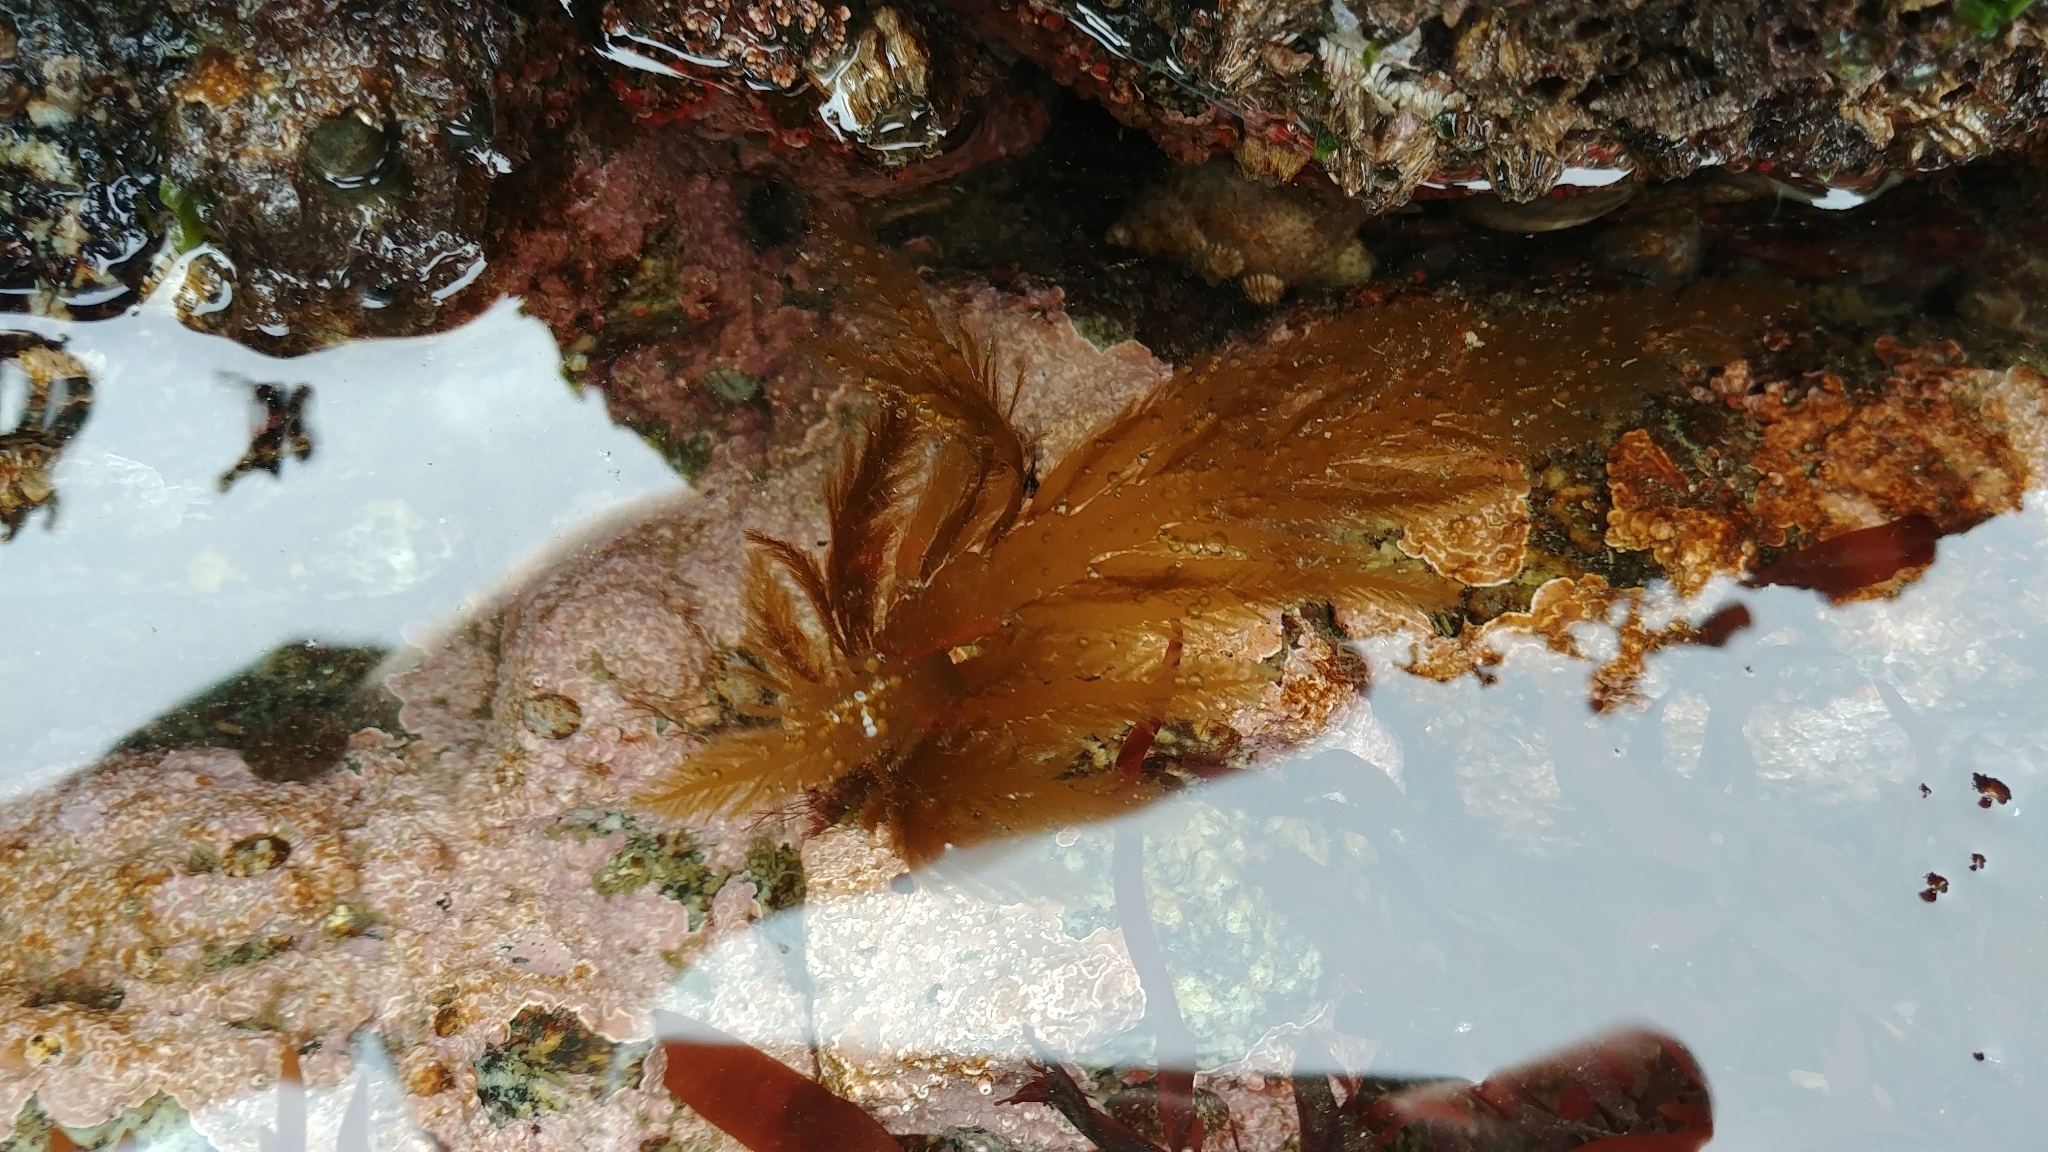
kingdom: Chromista
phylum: Ochrophyta
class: Phaeophyceae
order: Desmarestiales
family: Desmarestiaceae
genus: Desmarestia
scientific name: Desmarestia ligulata
